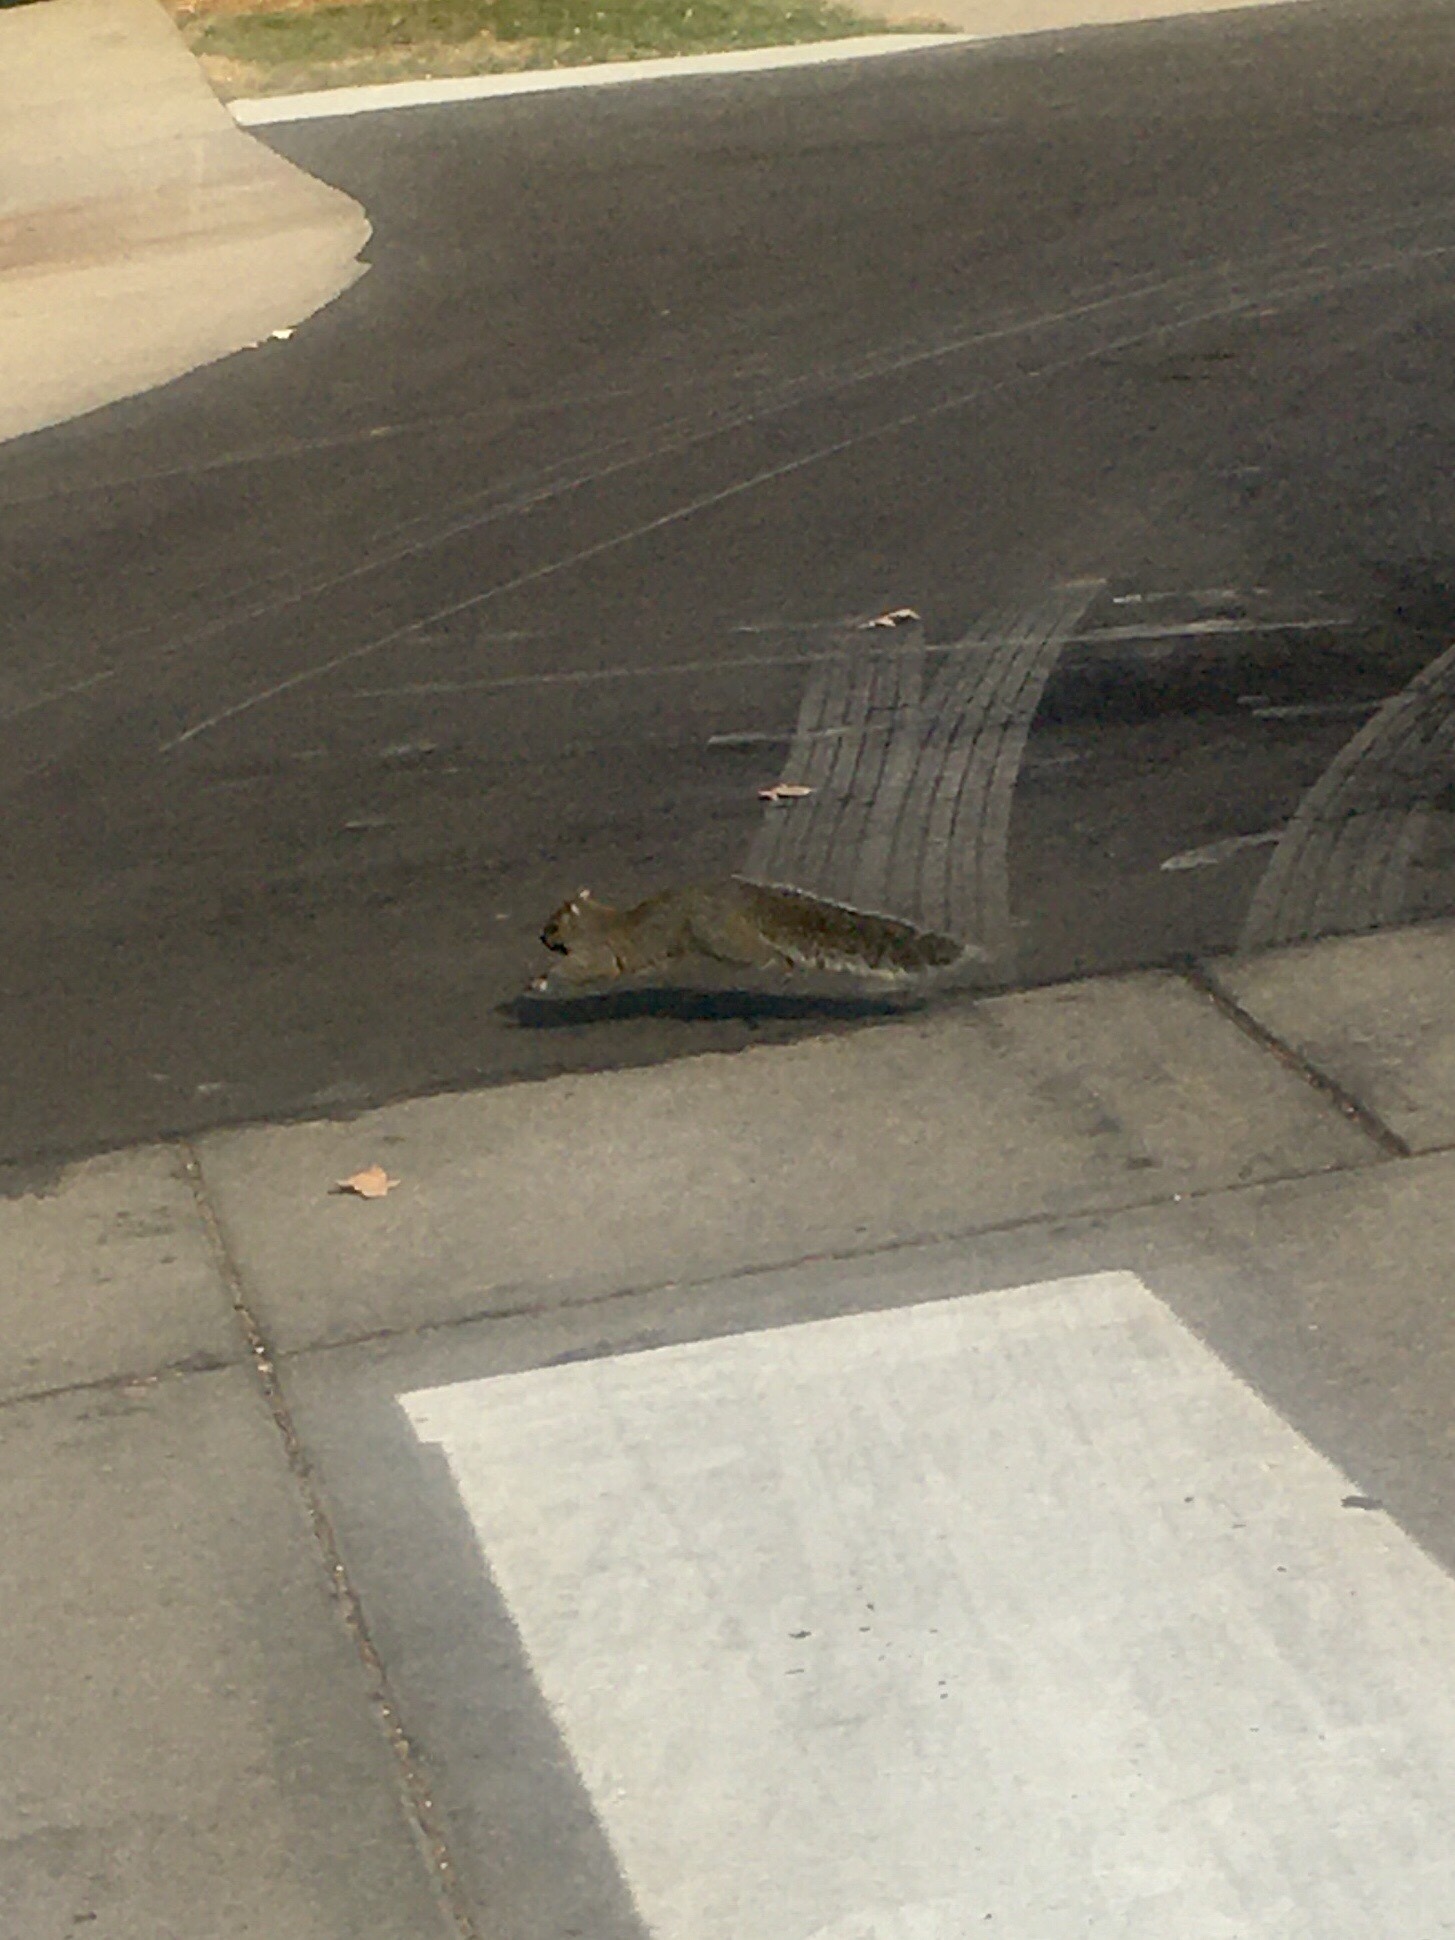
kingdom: Animalia
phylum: Chordata
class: Mammalia
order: Rodentia
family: Sciuridae
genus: Sciurus
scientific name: Sciurus carolinensis
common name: Eastern gray squirrel
